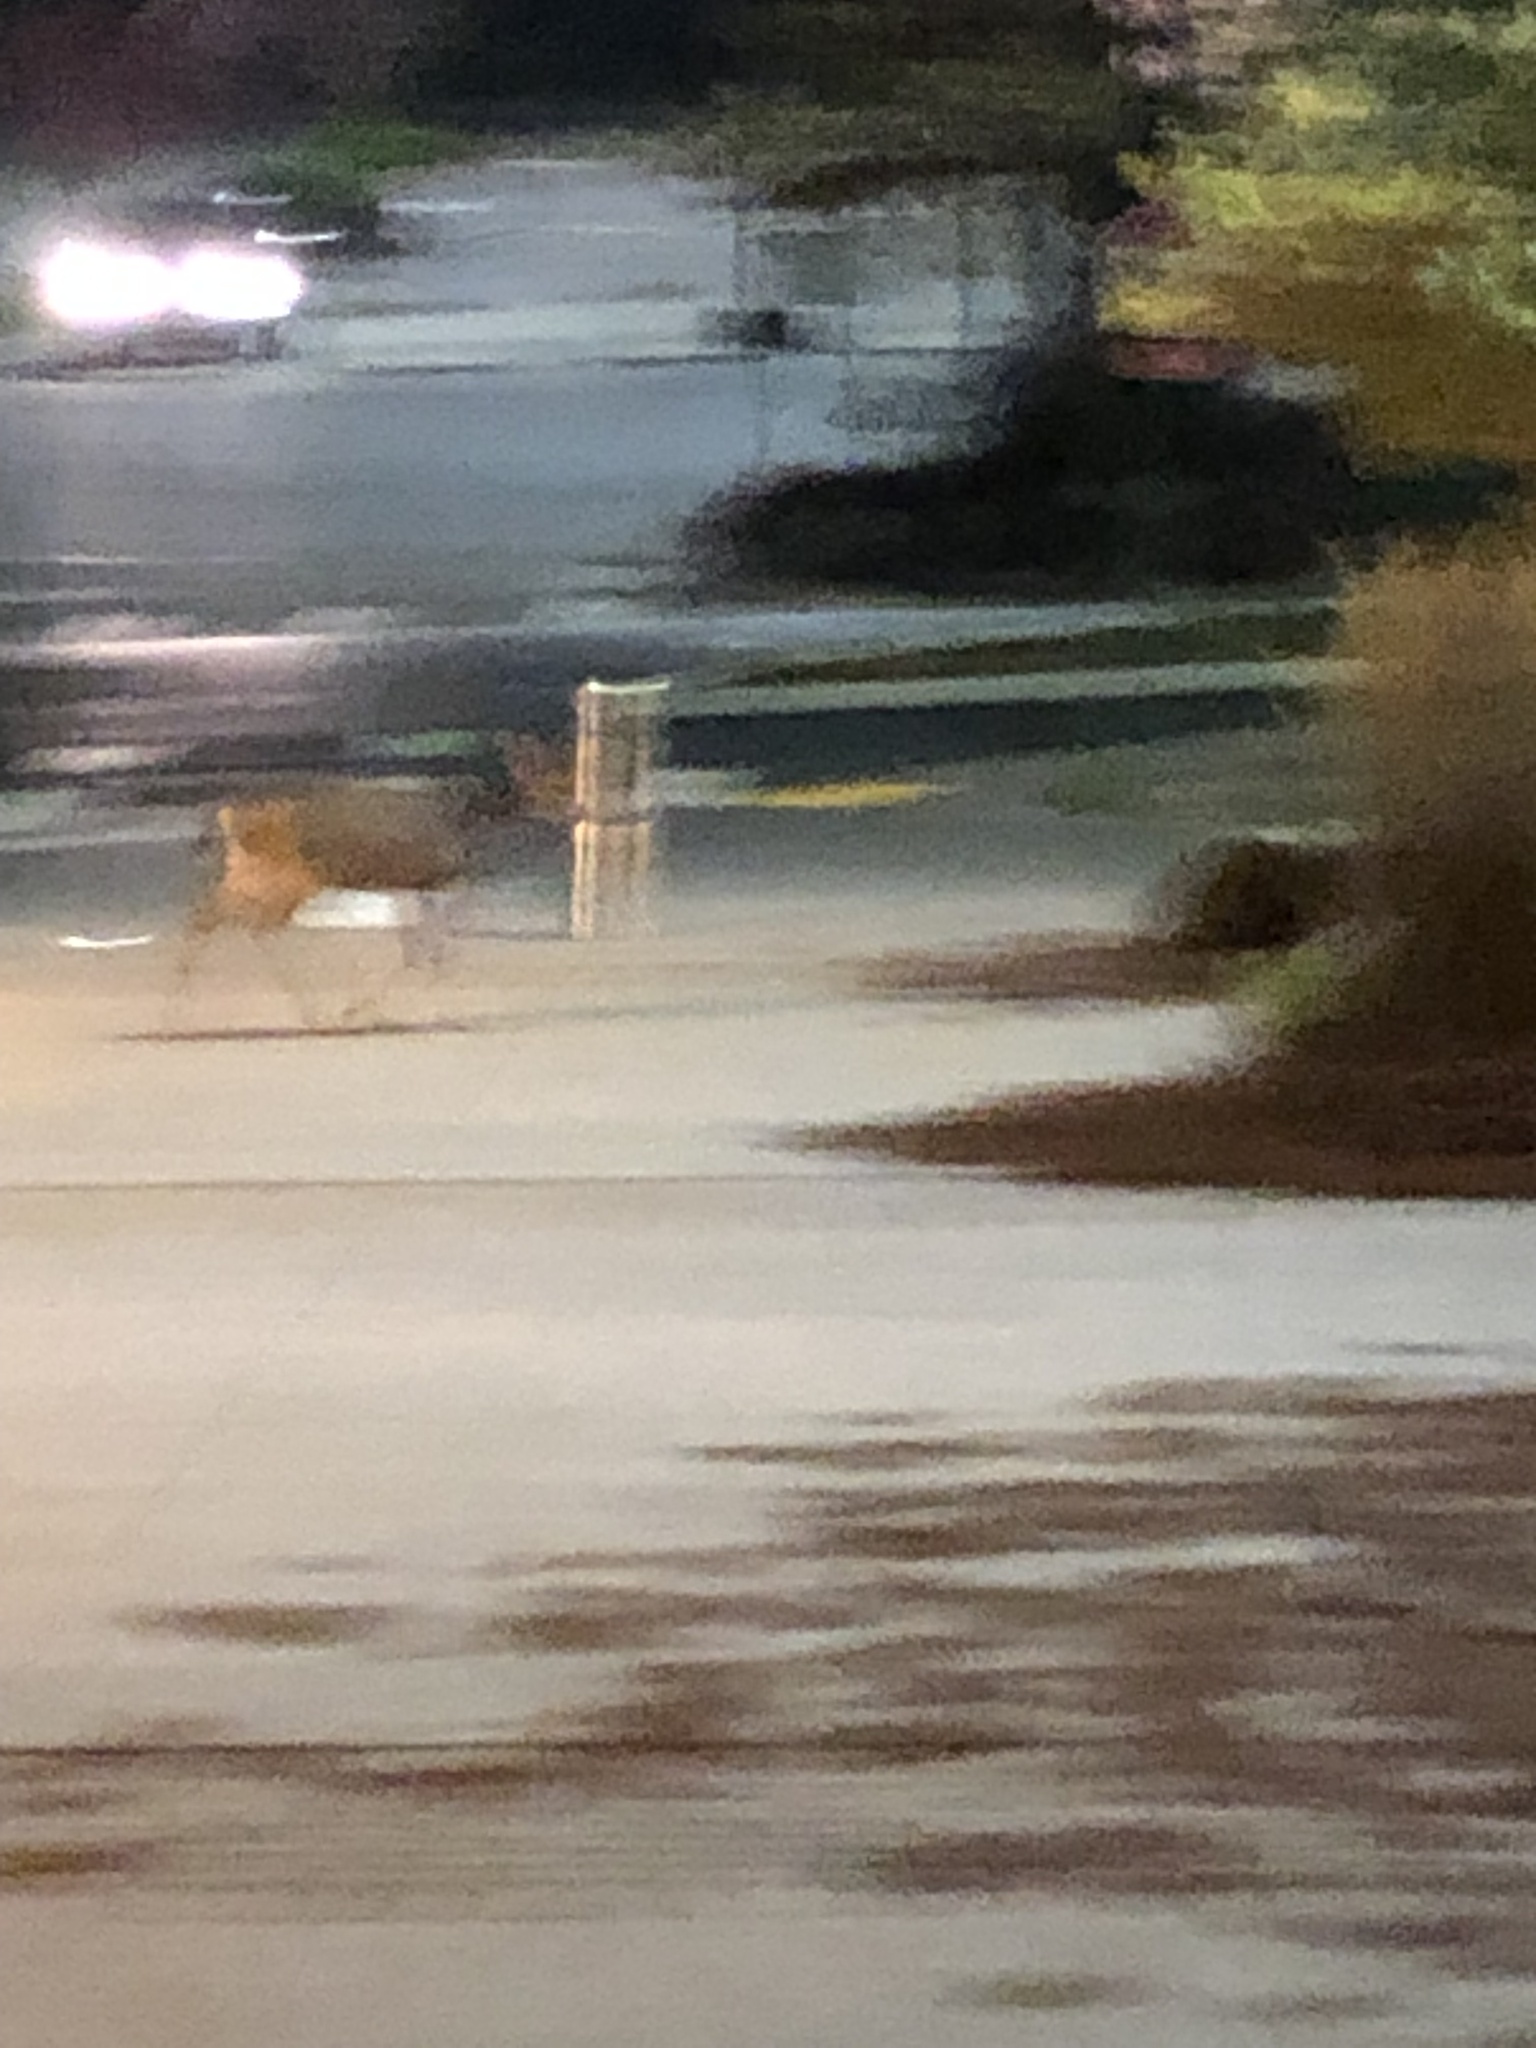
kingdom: Animalia
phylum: Chordata
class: Mammalia
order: Artiodactyla
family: Cervidae
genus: Odocoileus
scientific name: Odocoileus hemionus
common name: Mule deer
